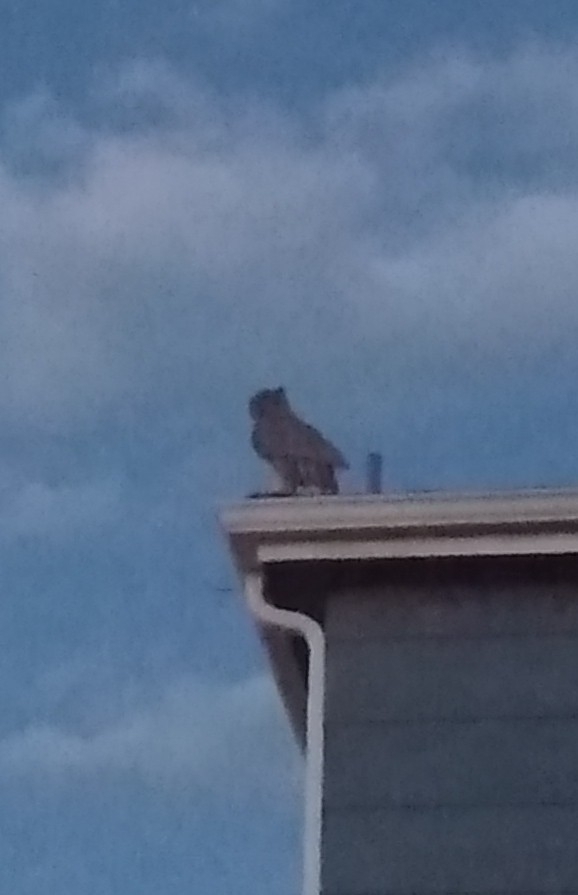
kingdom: Animalia
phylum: Chordata
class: Aves
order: Strigiformes
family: Strigidae
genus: Bubo
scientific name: Bubo virginianus
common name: Great horned owl
